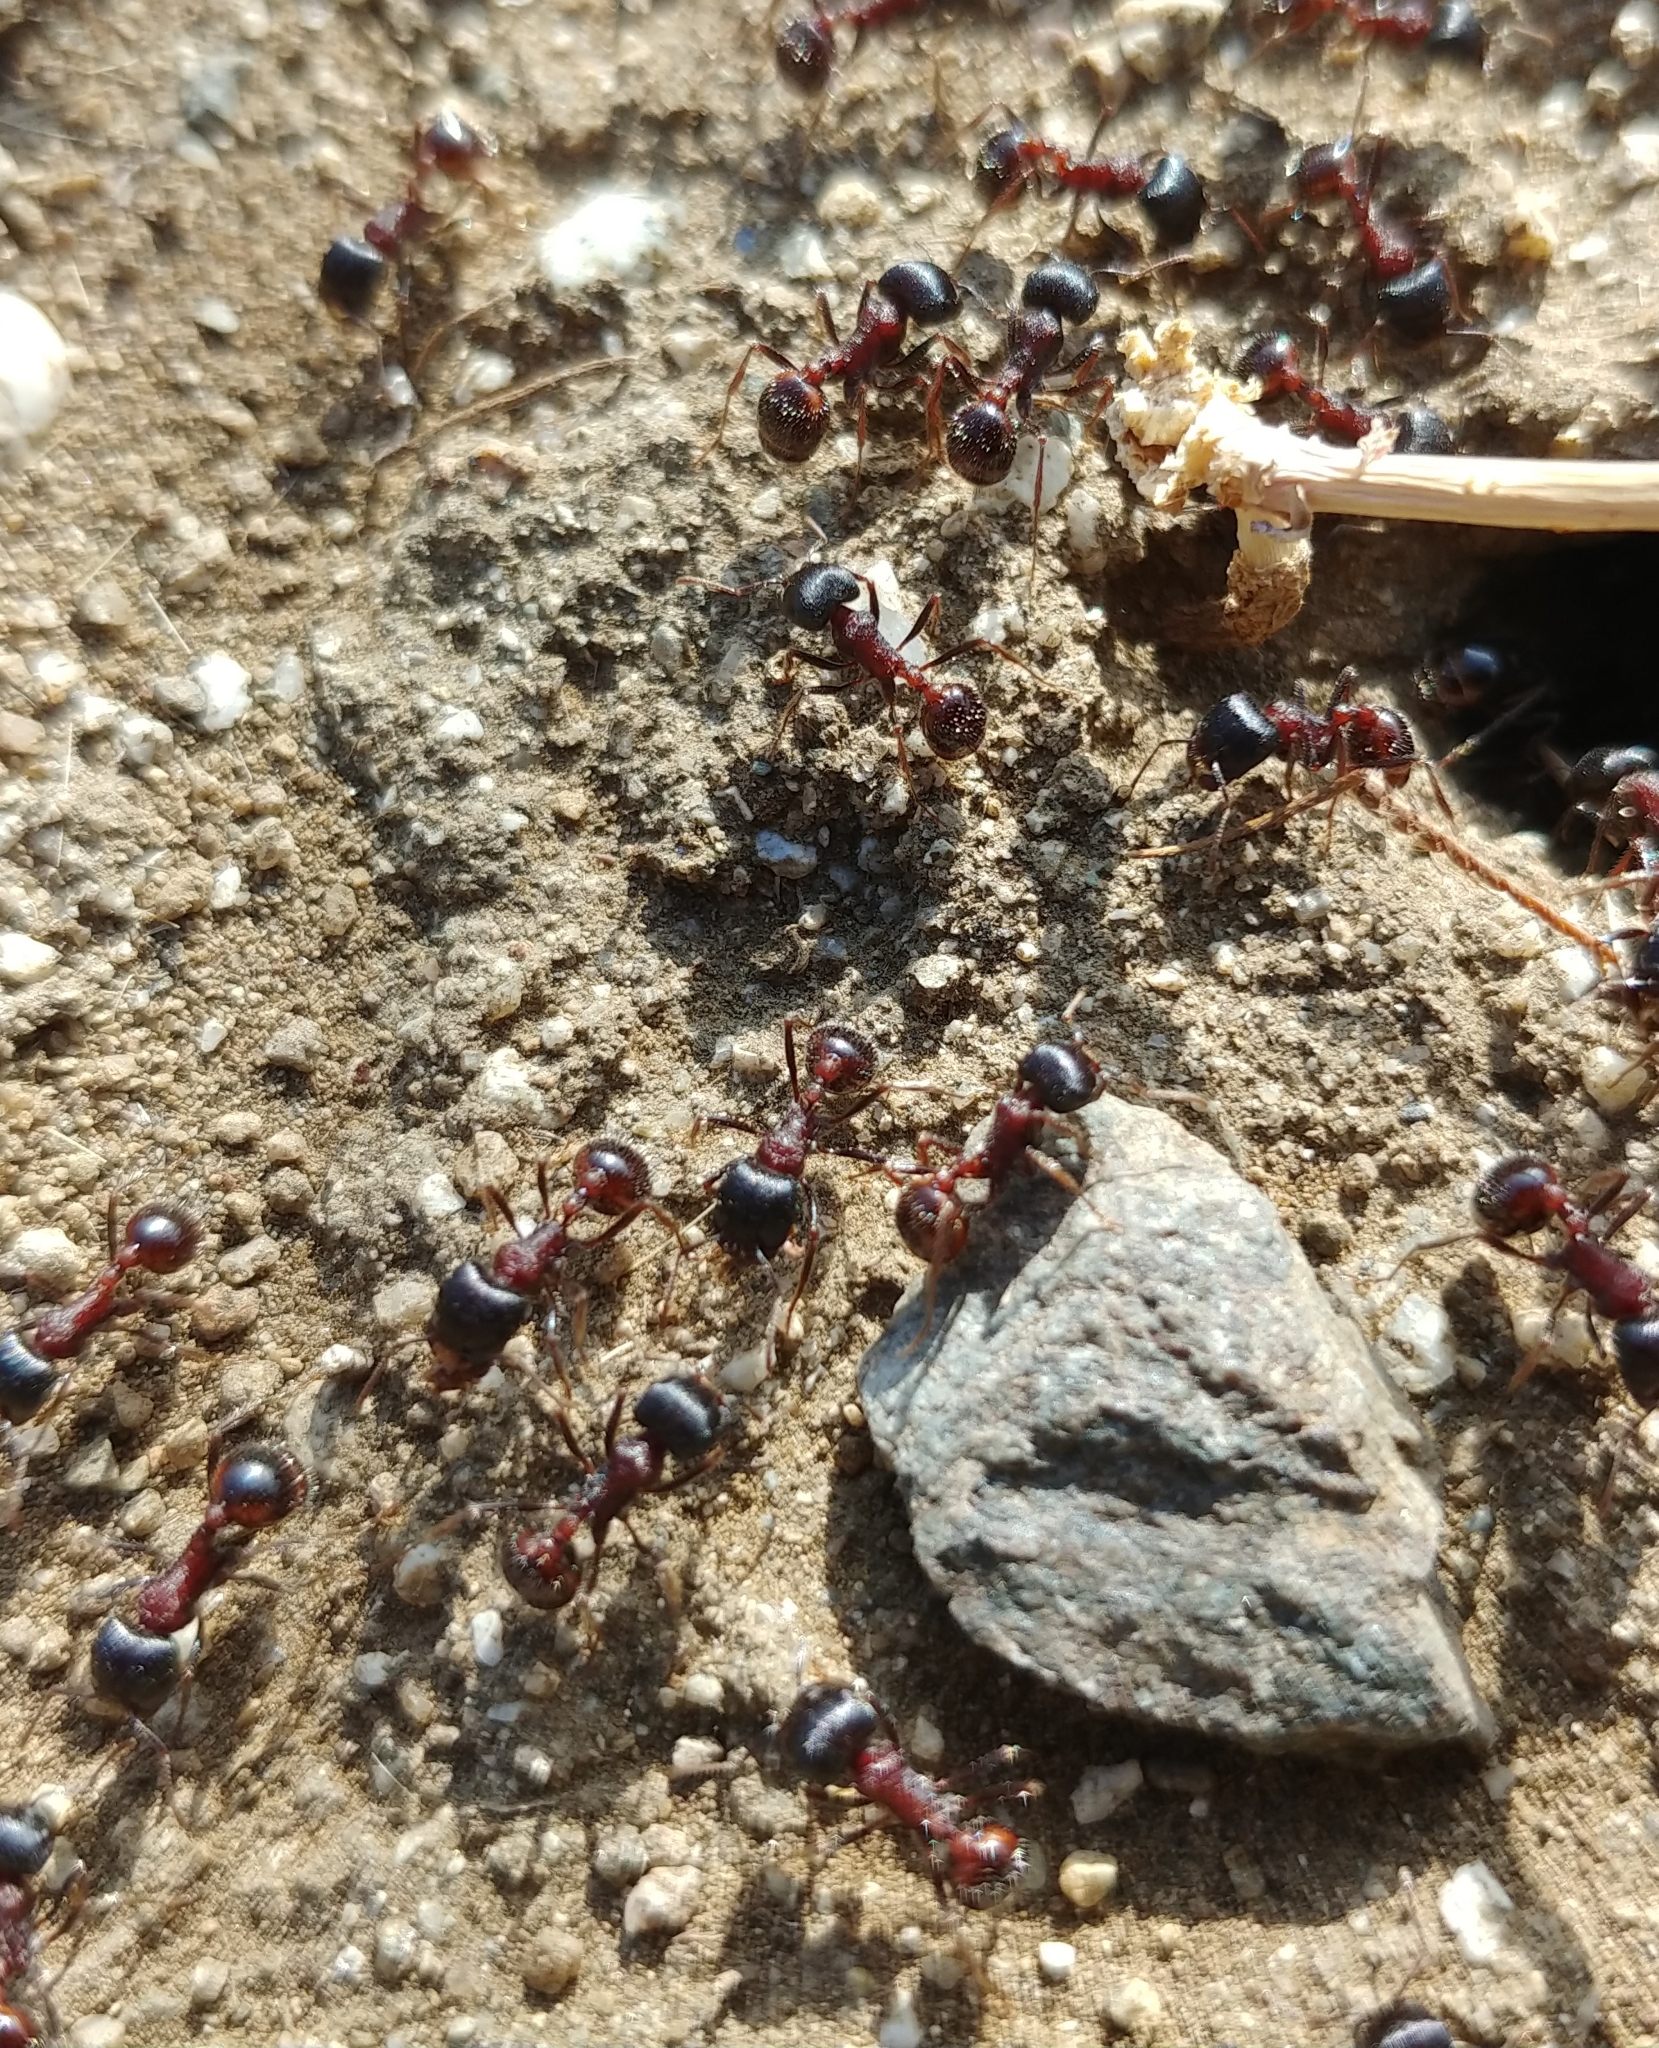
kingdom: Animalia
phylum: Arthropoda
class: Insecta
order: Hymenoptera
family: Formicidae
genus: Pogonomyrmex
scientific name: Pogonomyrmex rugosus
